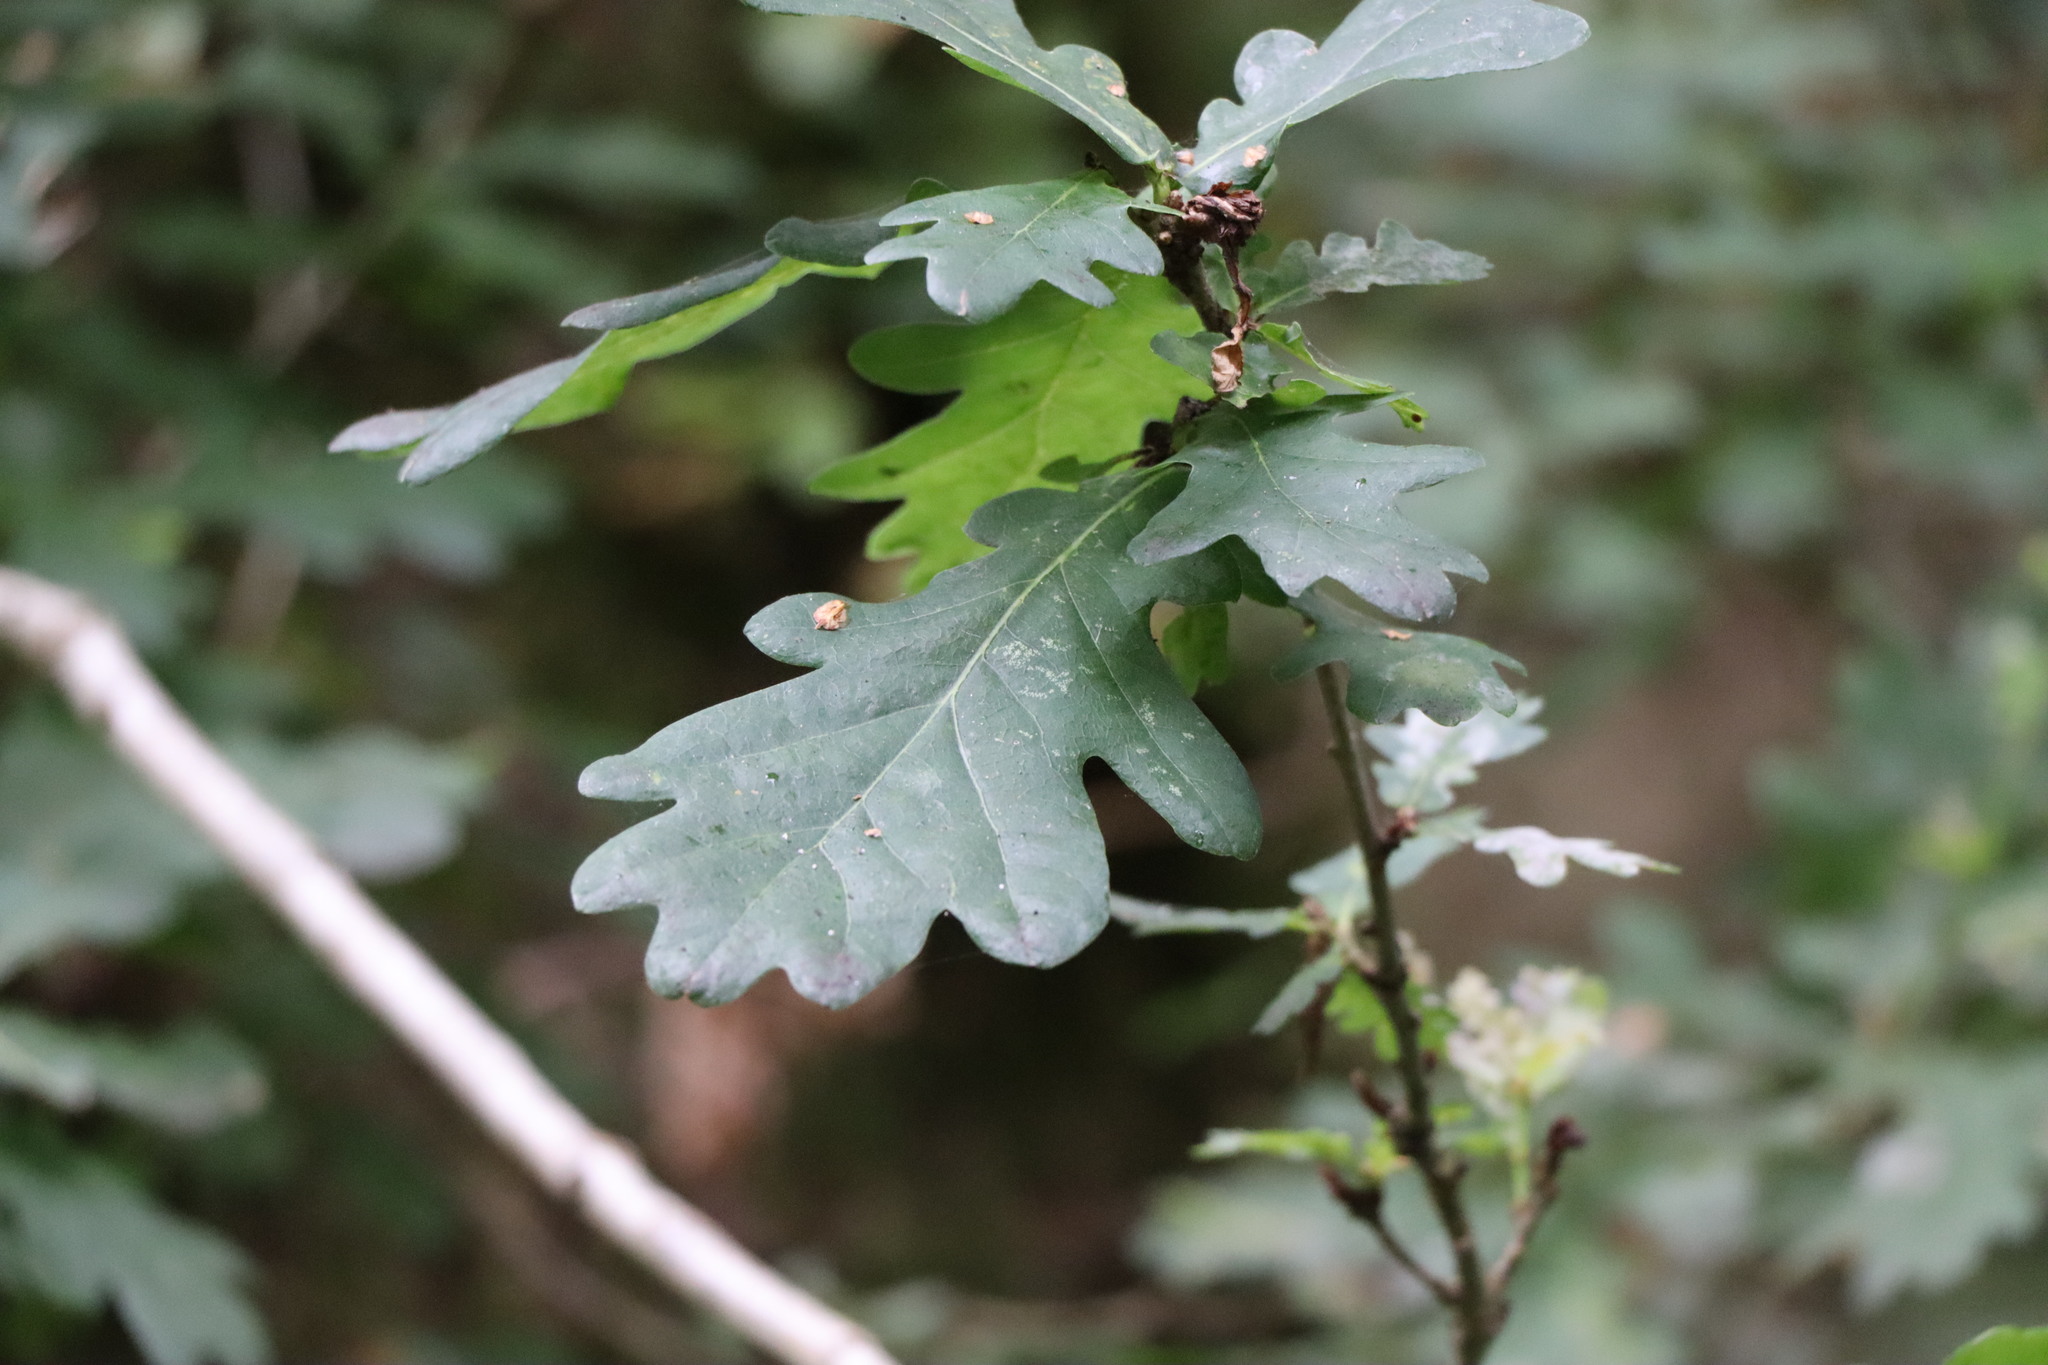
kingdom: Plantae
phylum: Tracheophyta
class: Magnoliopsida
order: Fagales
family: Fagaceae
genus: Quercus
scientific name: Quercus robur
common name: Pedunculate oak
